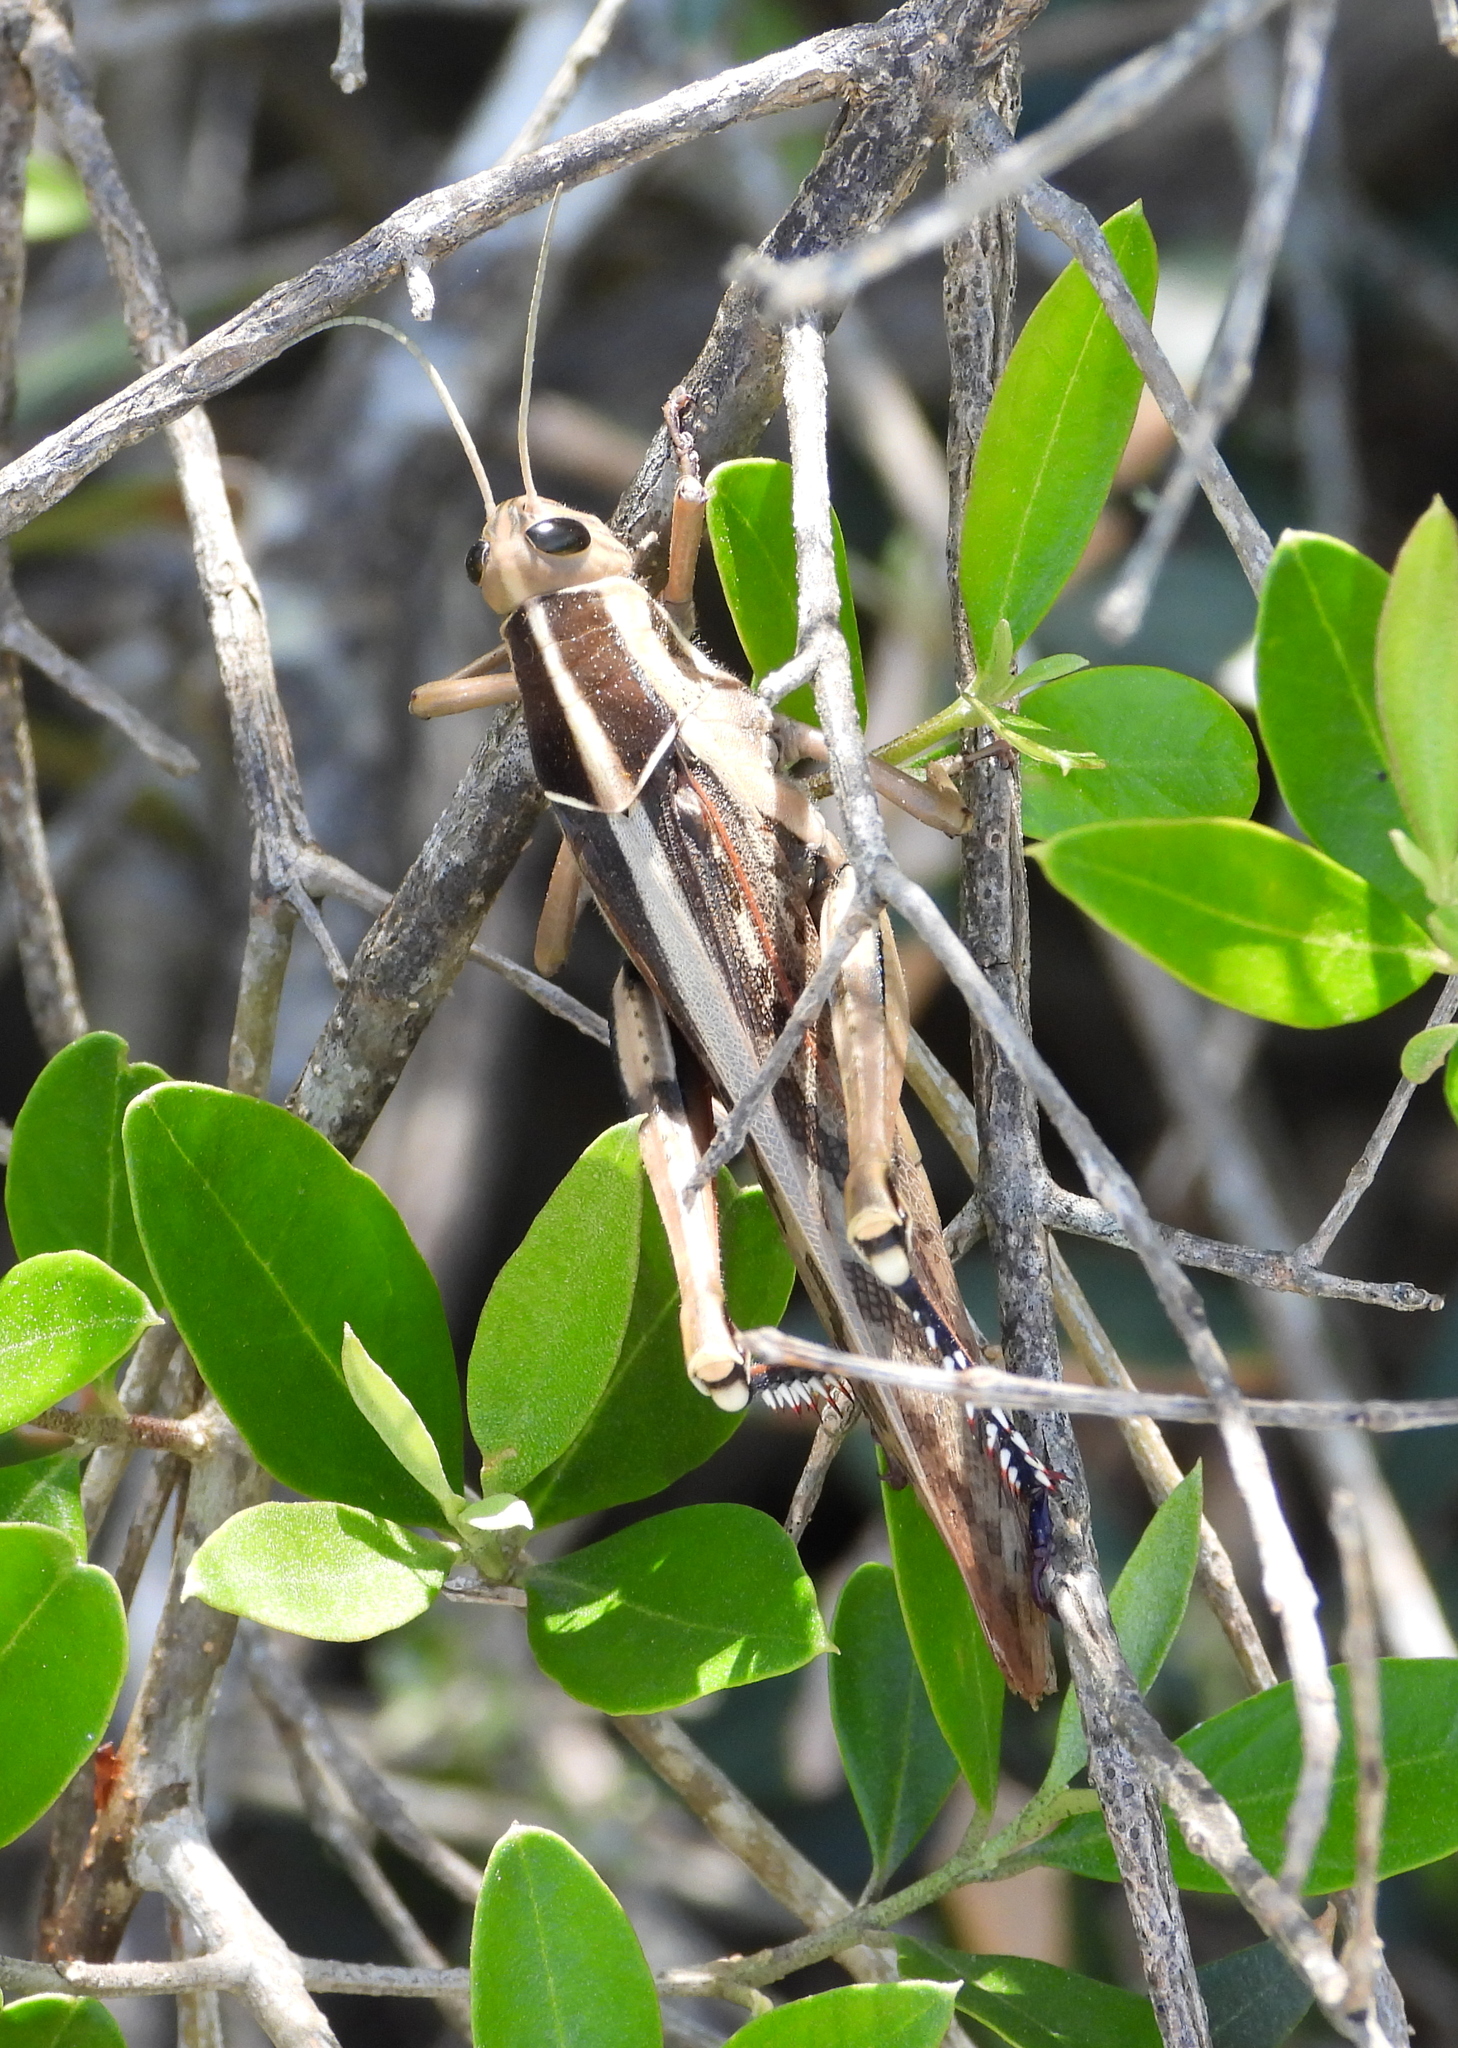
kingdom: Animalia
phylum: Arthropoda
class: Insecta
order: Orthoptera
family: Acrididae
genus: Acanthacris
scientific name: Acanthacris ruficornis
